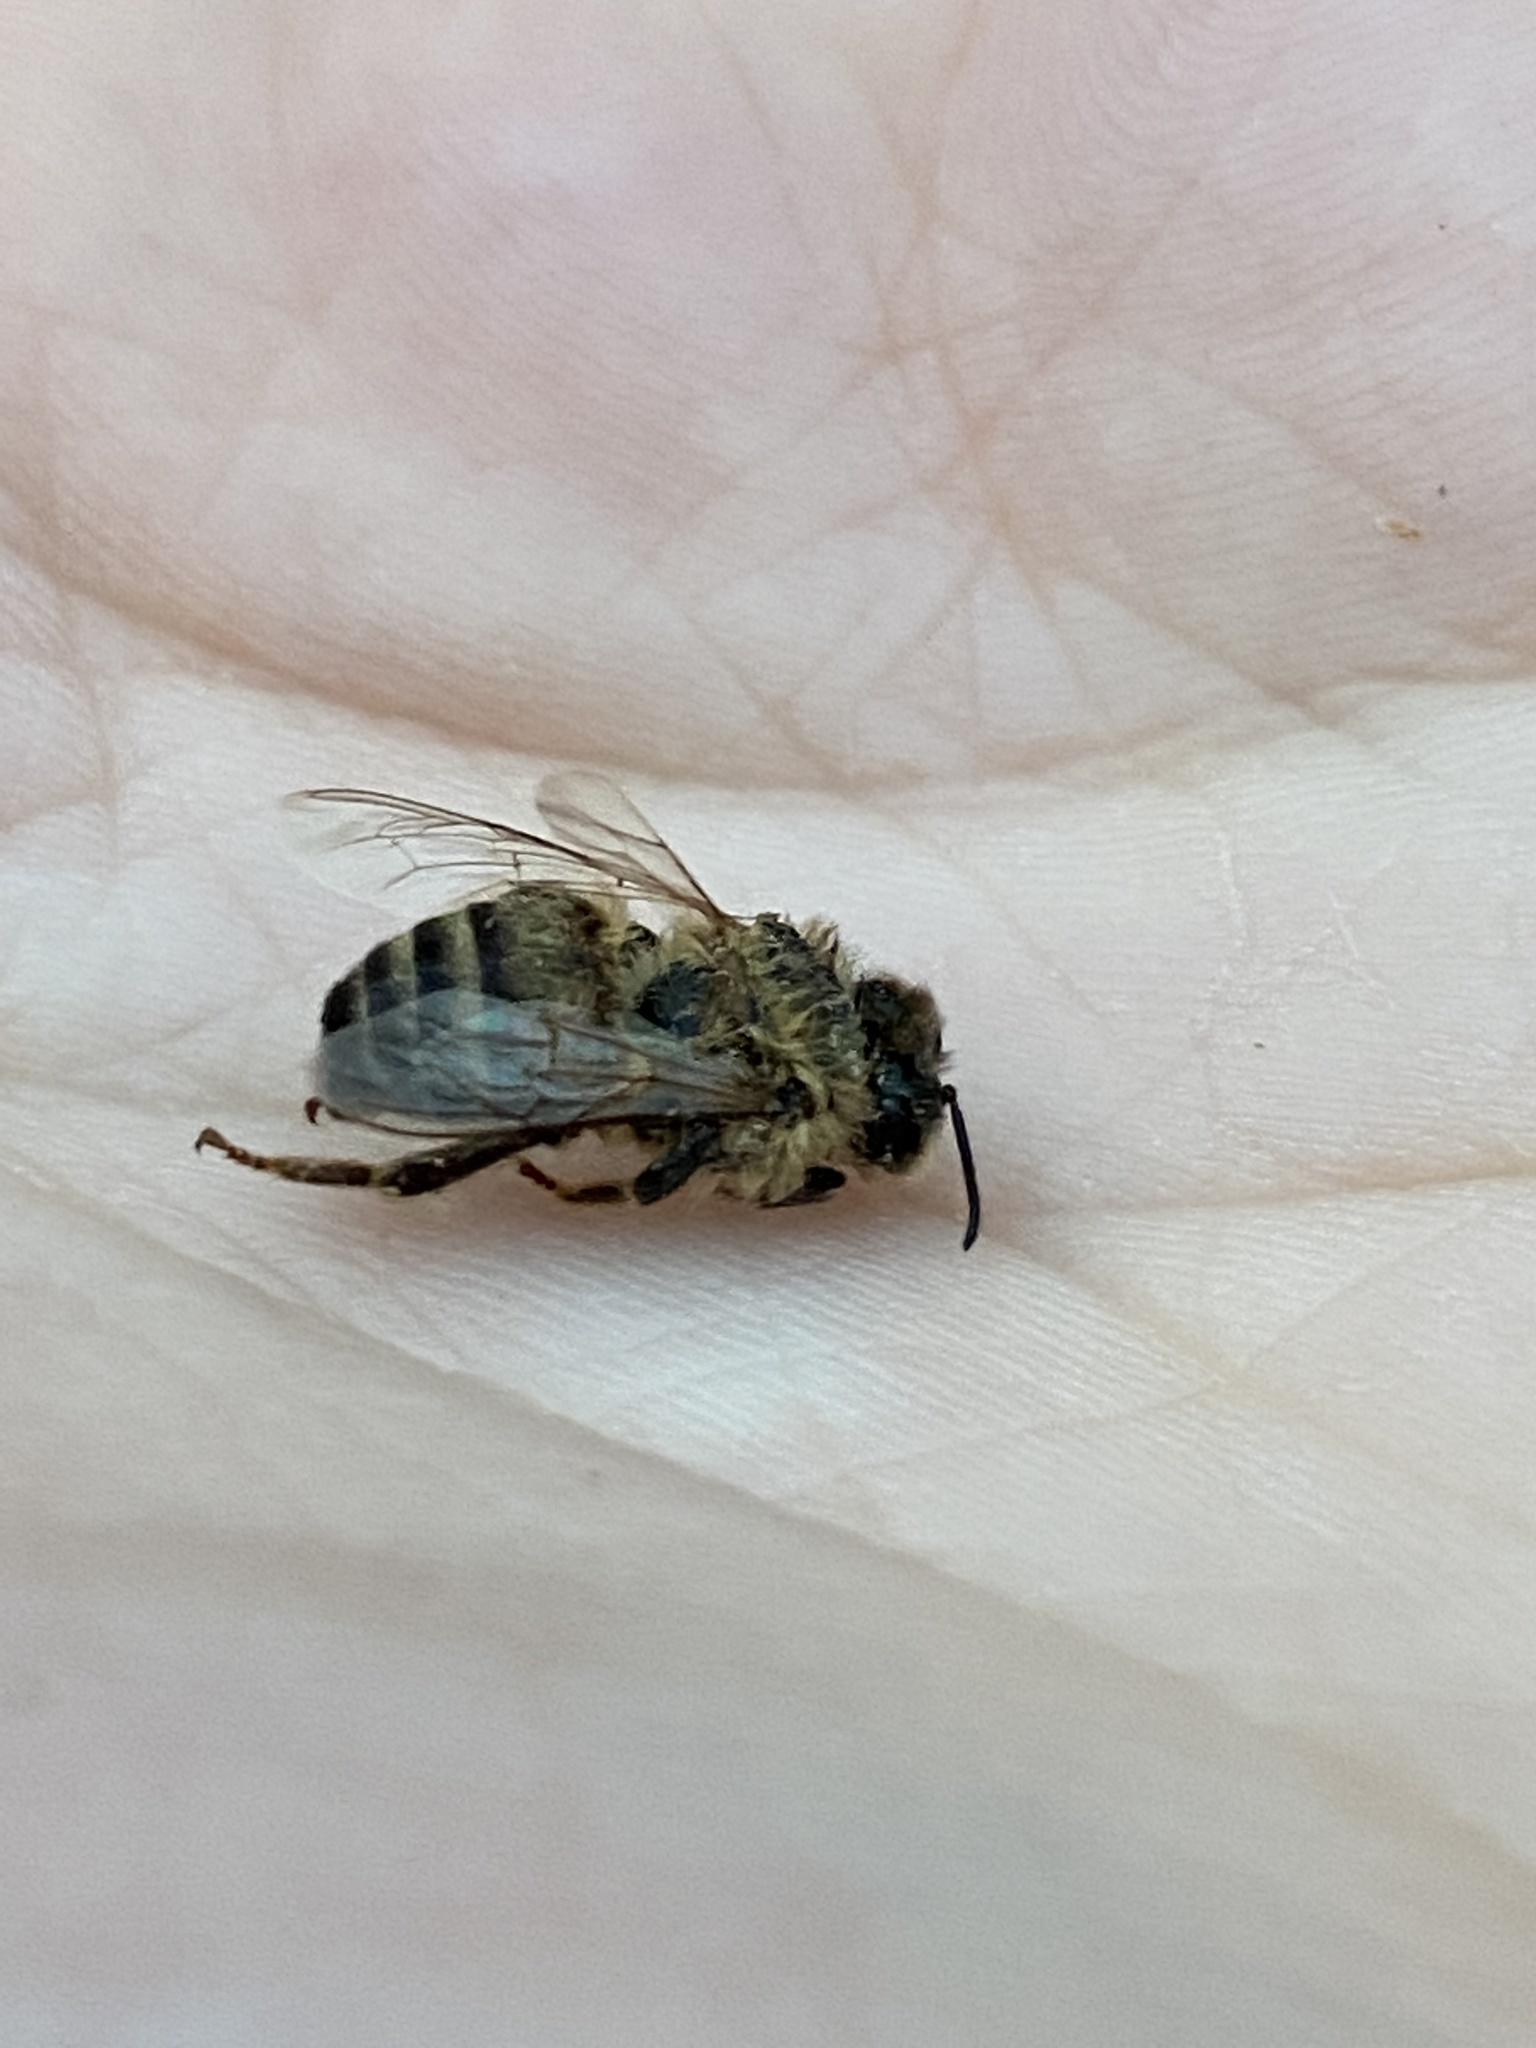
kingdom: Animalia
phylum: Arthropoda
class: Insecta
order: Hymenoptera
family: Apidae
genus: Apis
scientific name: Apis mellifera
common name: Honey bee
